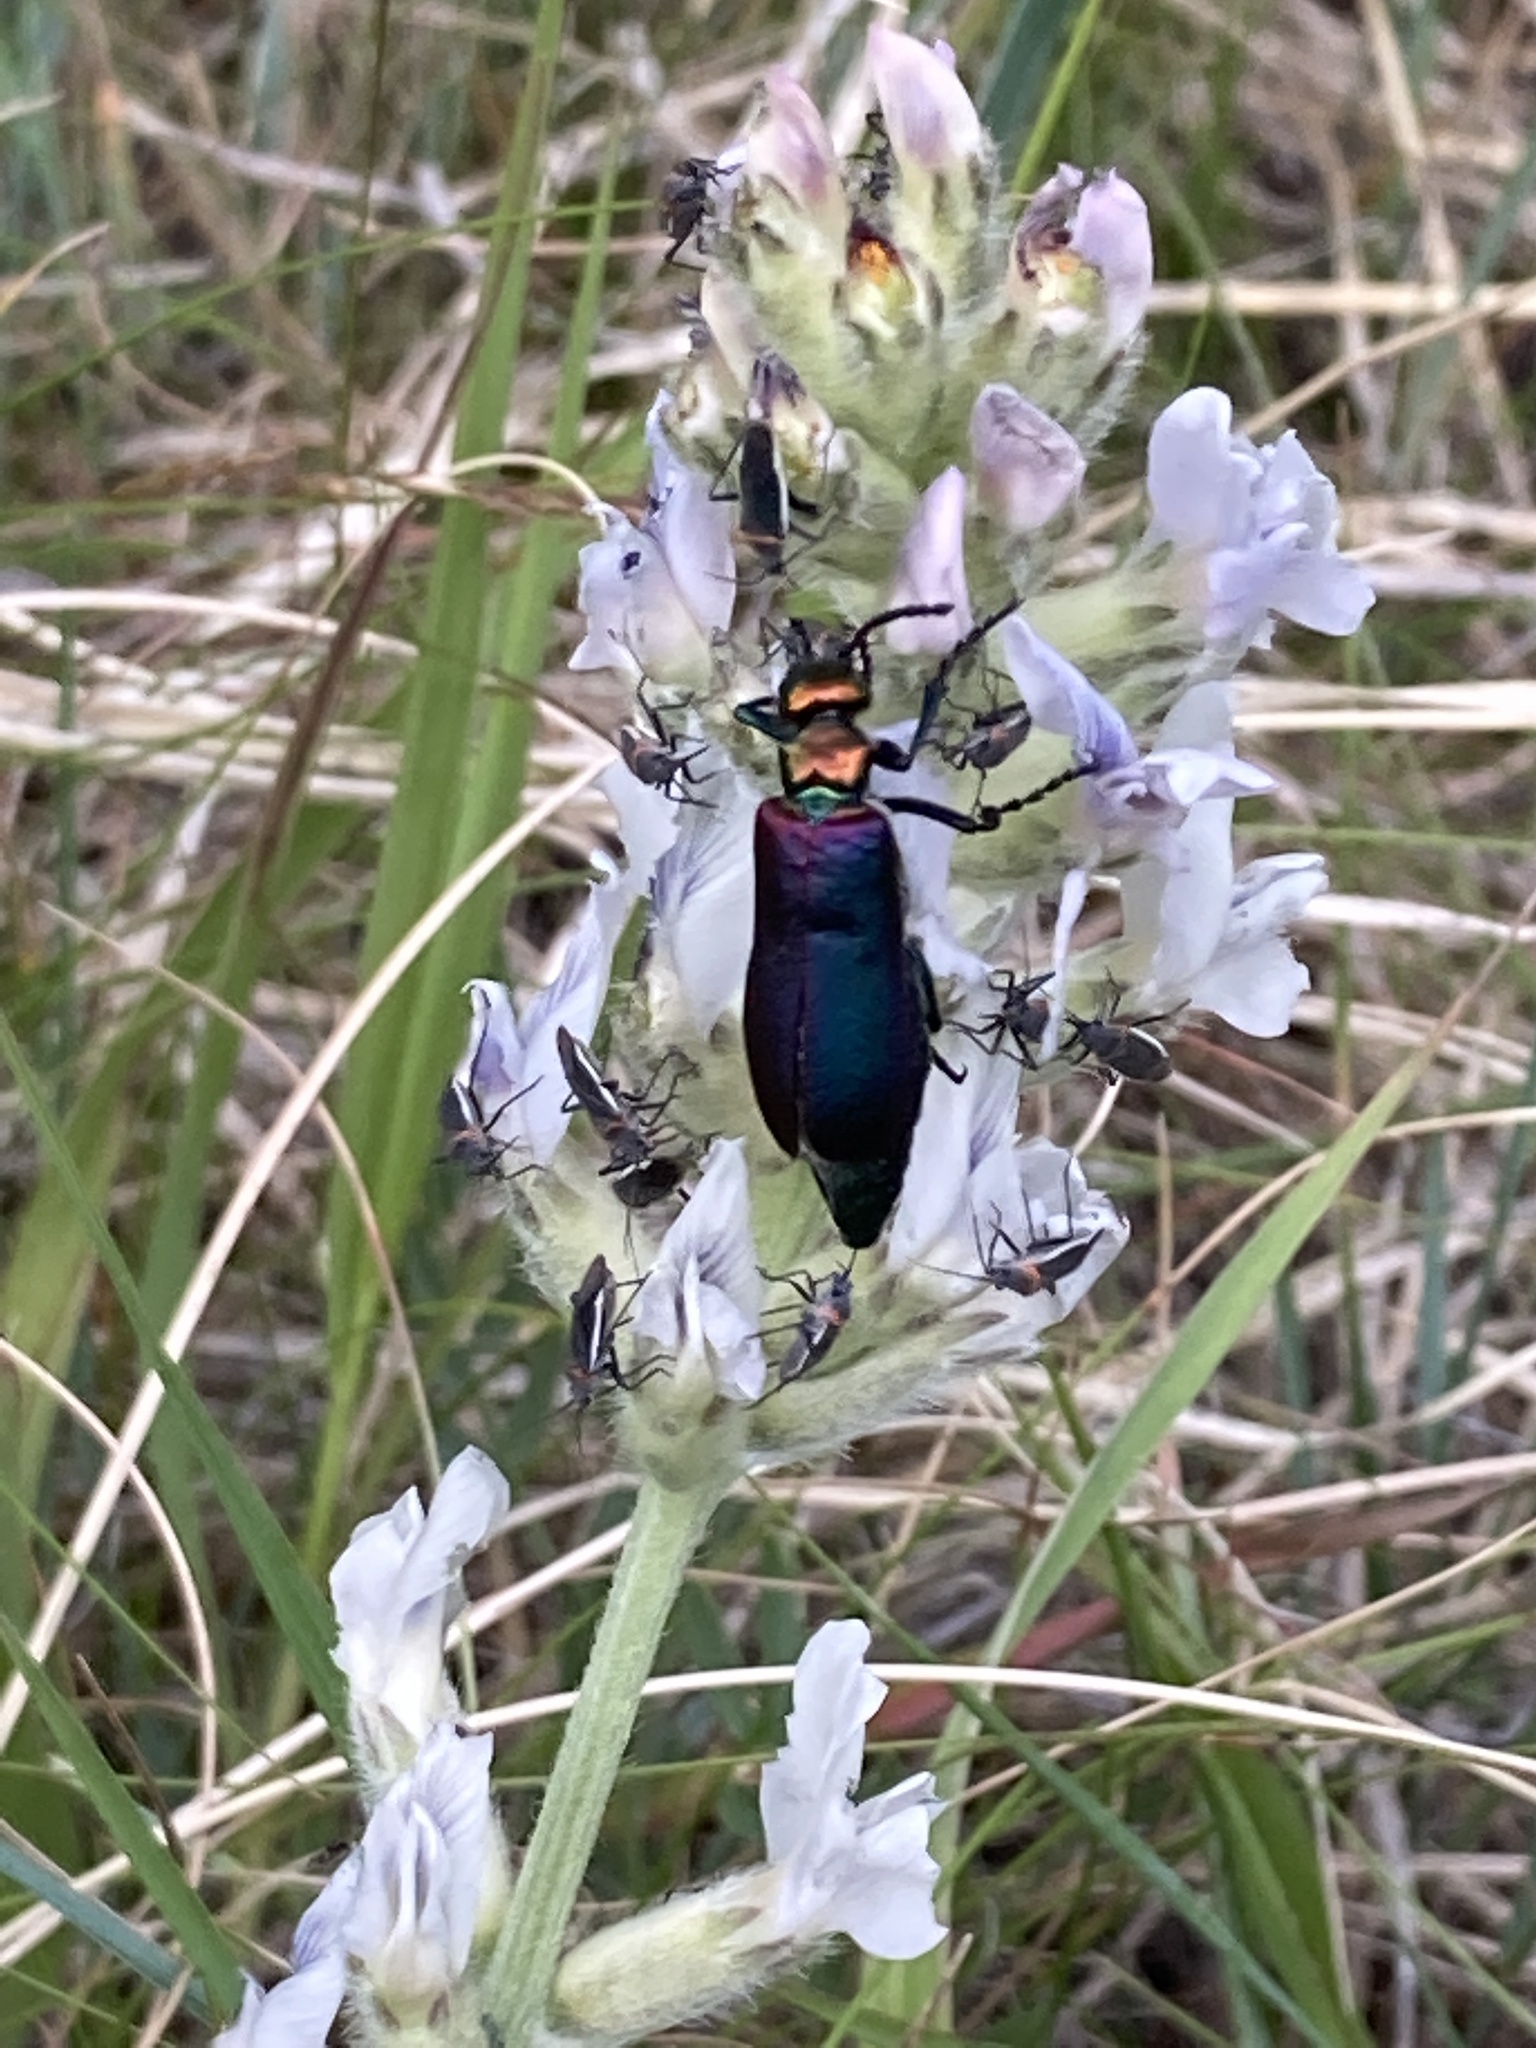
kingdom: Animalia
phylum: Arthropoda
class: Insecta
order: Coleoptera
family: Meloidae
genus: Lytta
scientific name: Lytta nuttallii
